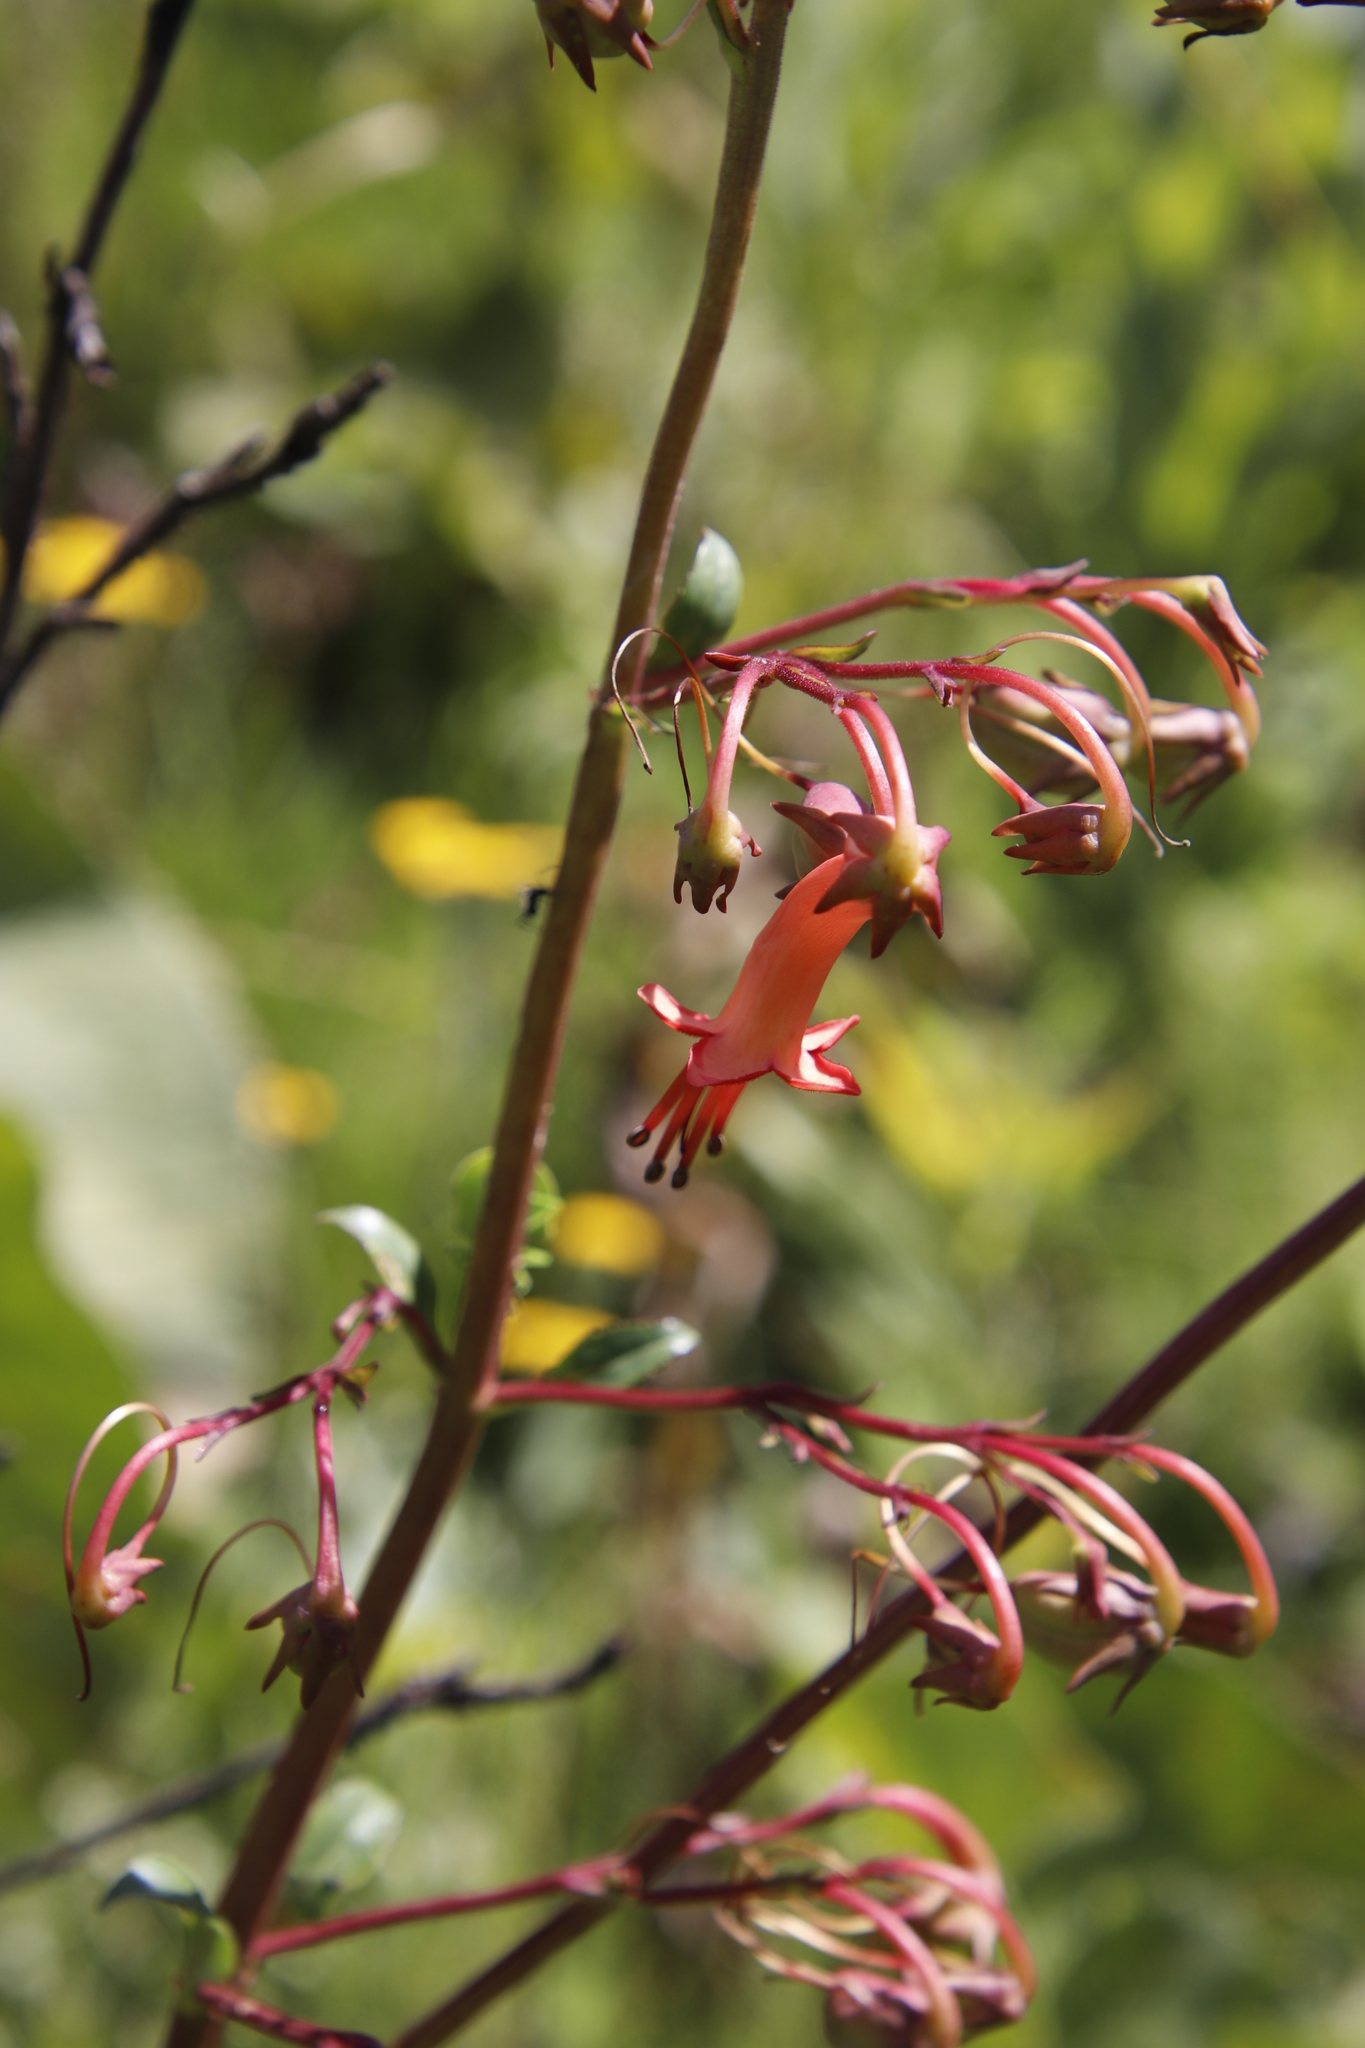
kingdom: Plantae
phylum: Tracheophyta
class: Magnoliopsida
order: Lamiales
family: Scrophulariaceae
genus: Phygelius
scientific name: Phygelius capensis
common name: Cape figwort
